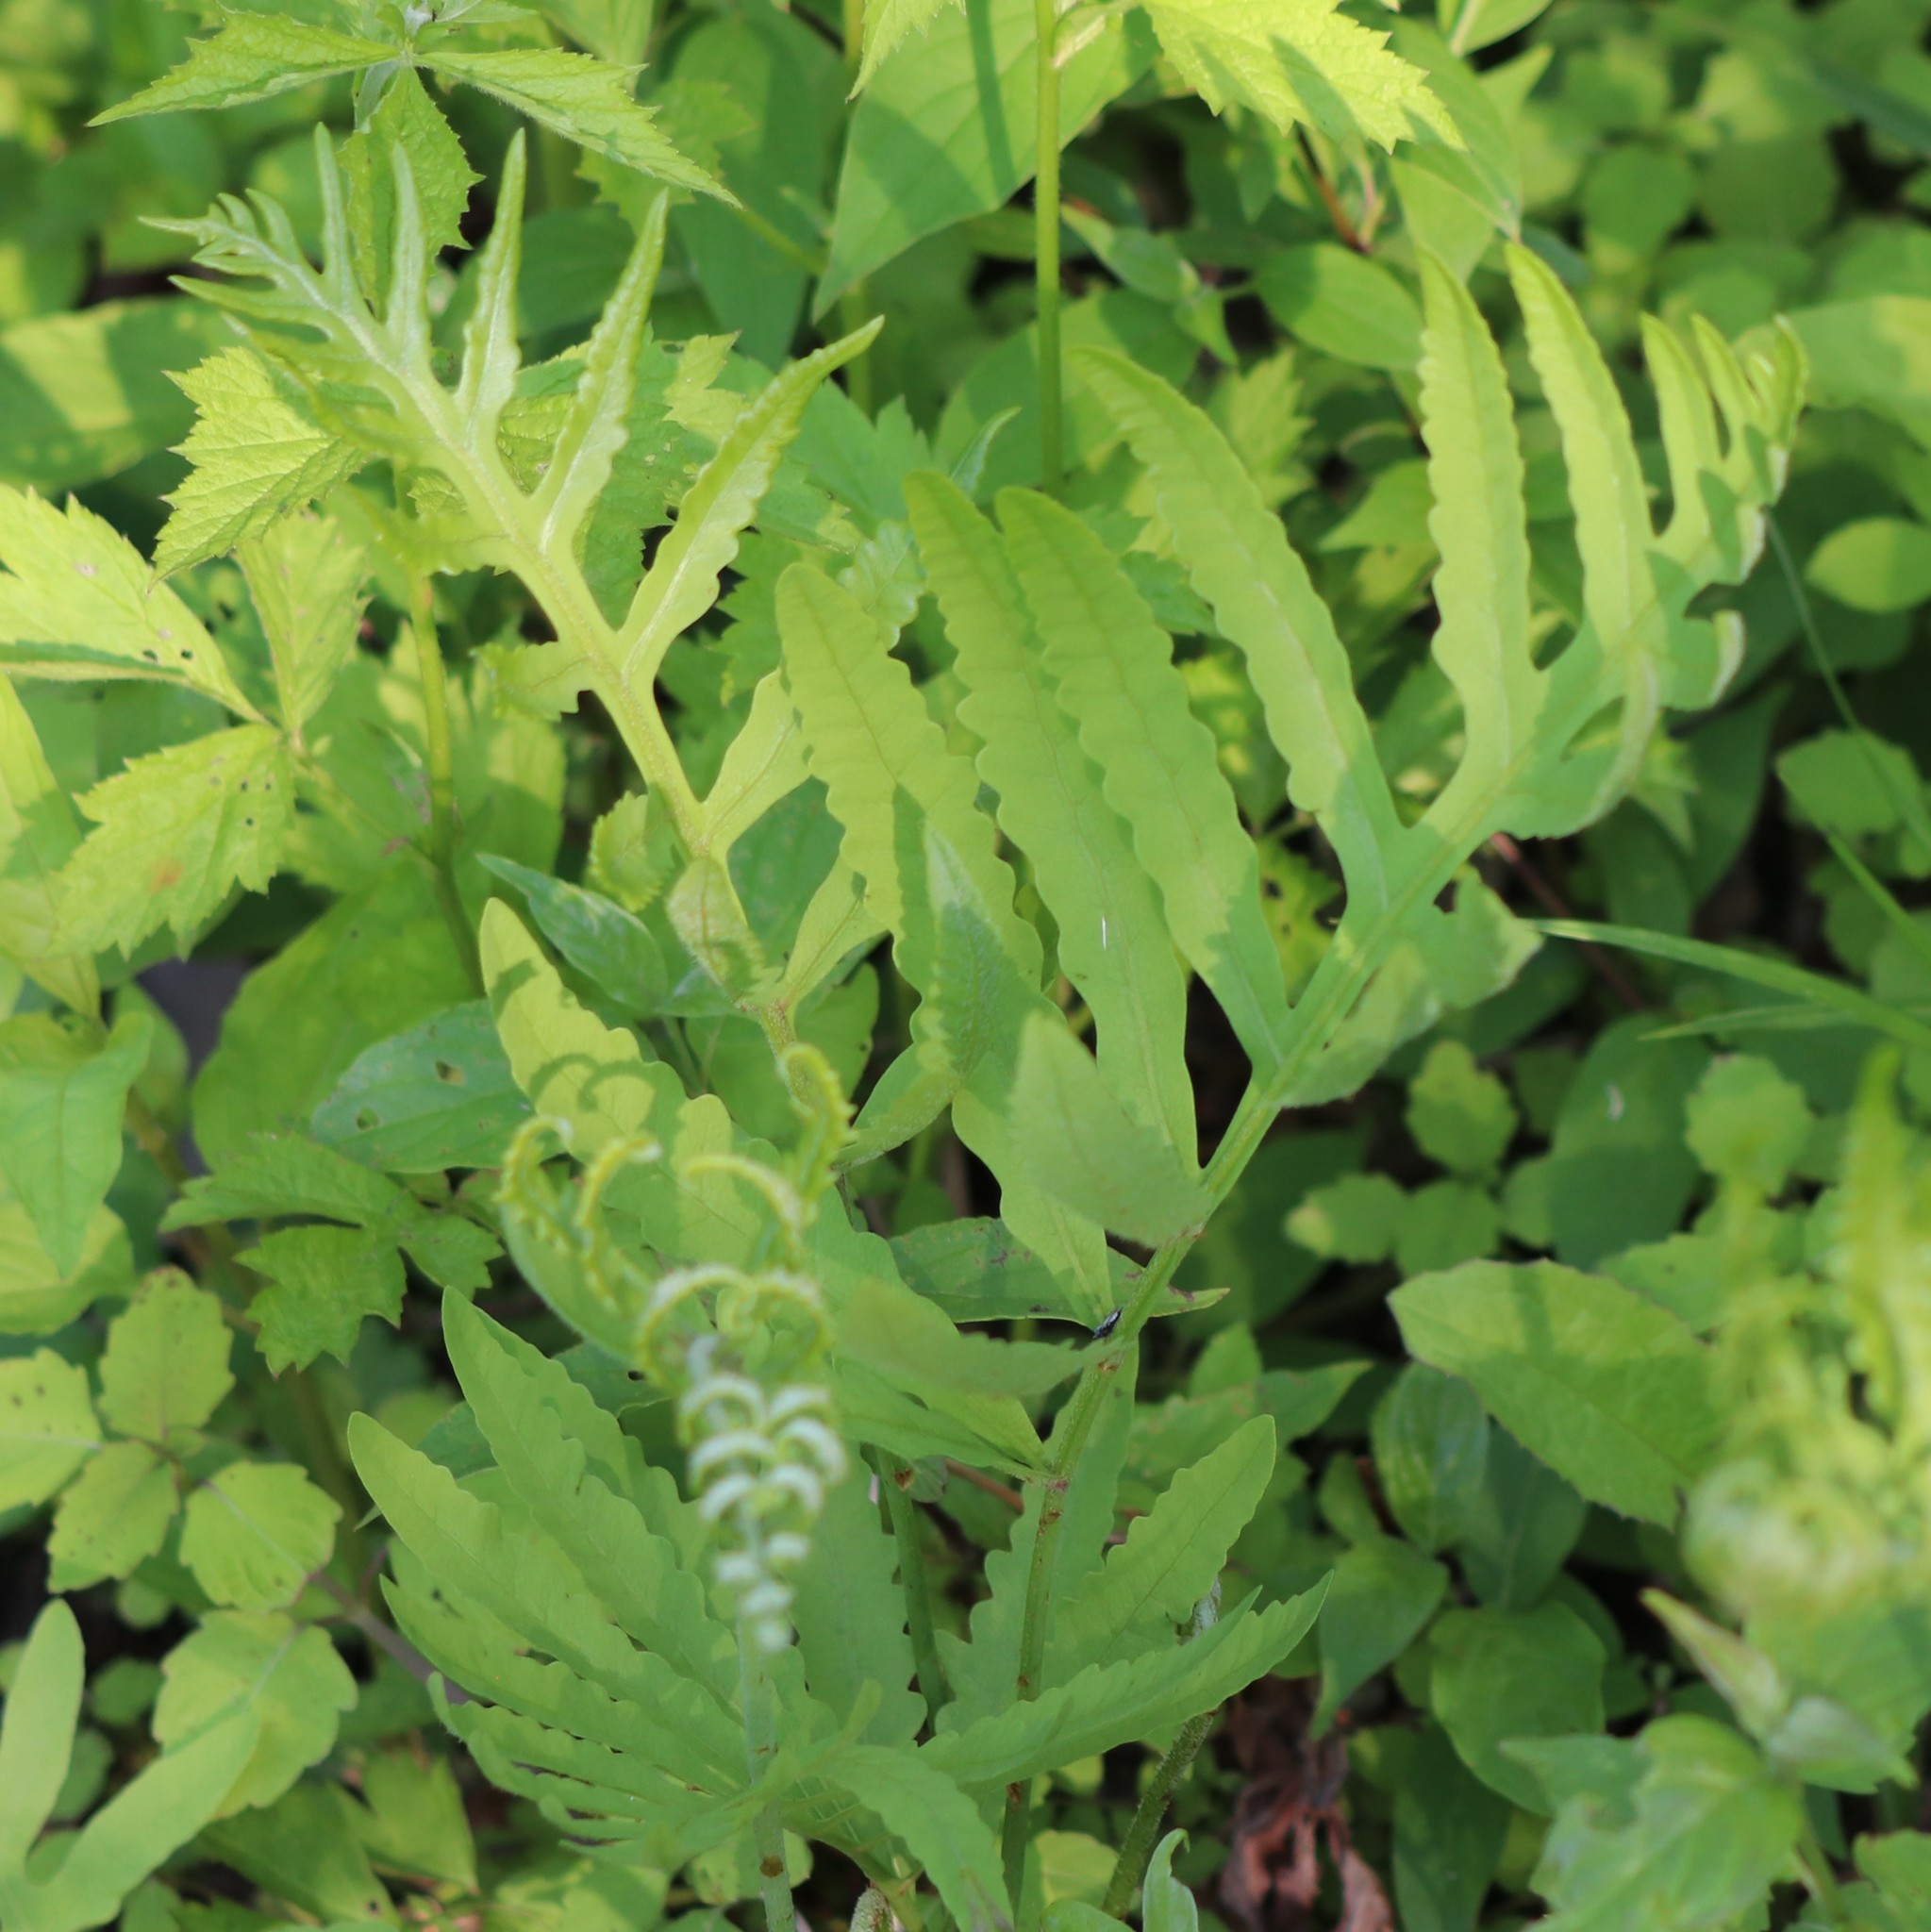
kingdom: Plantae
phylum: Tracheophyta
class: Polypodiopsida
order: Polypodiales
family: Onocleaceae
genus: Onoclea
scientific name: Onoclea sensibilis
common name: Sensitive fern
